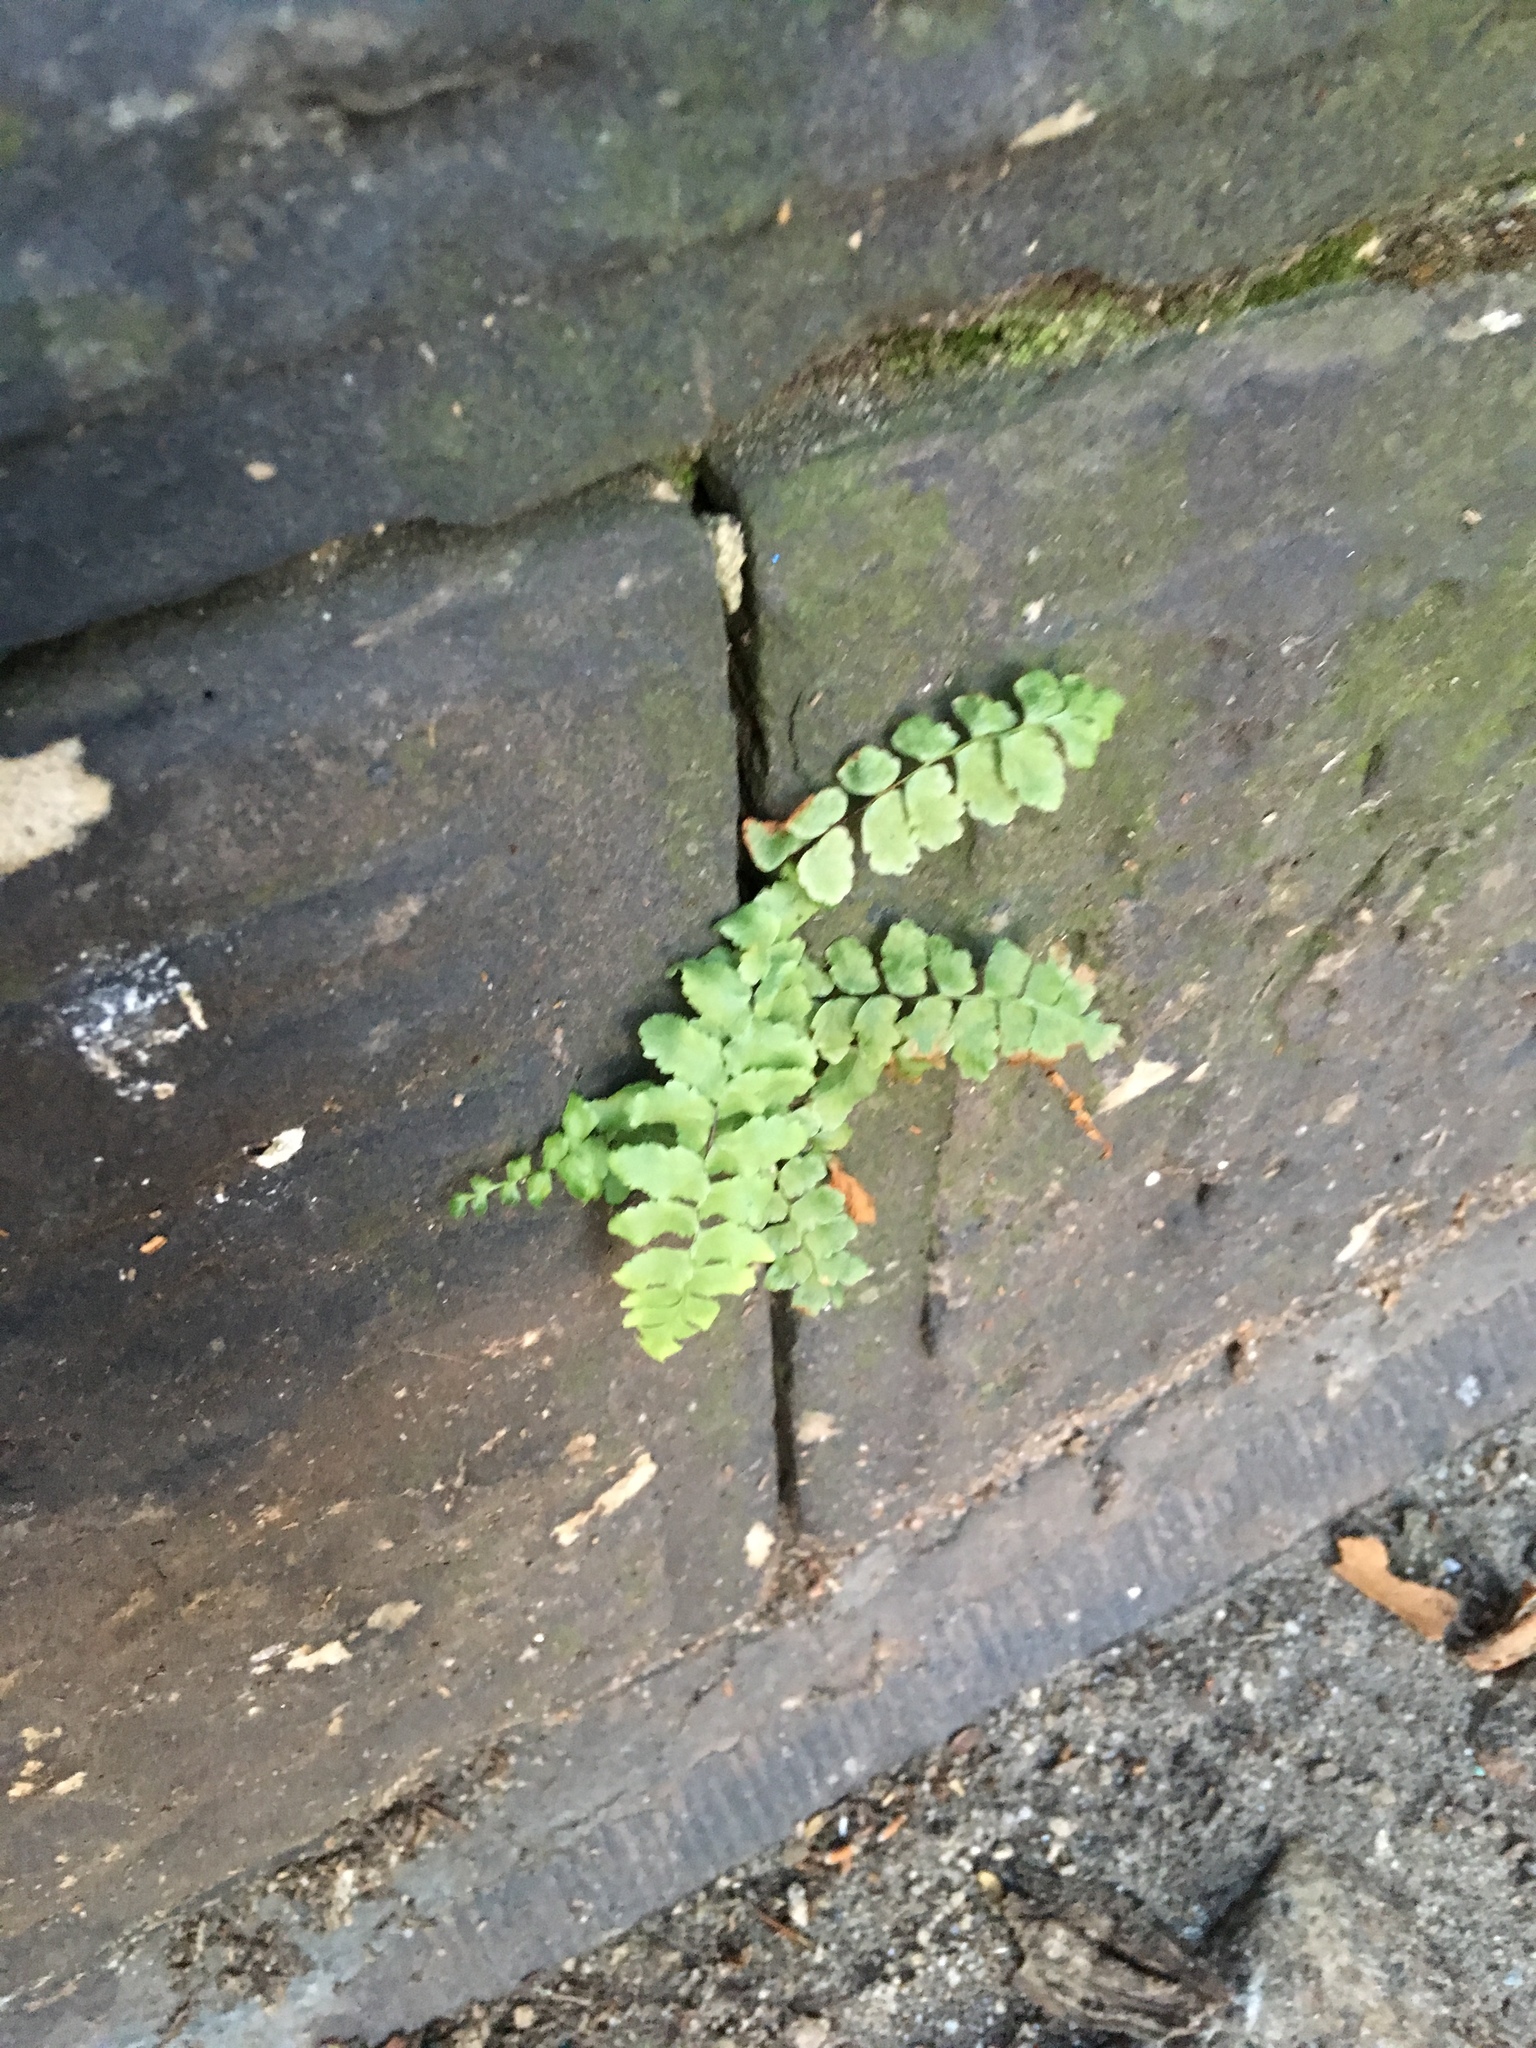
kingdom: Plantae
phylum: Tracheophyta
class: Polypodiopsida
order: Polypodiales
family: Aspleniaceae
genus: Asplenium
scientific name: Asplenium platyneuron
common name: Ebony spleenwort
